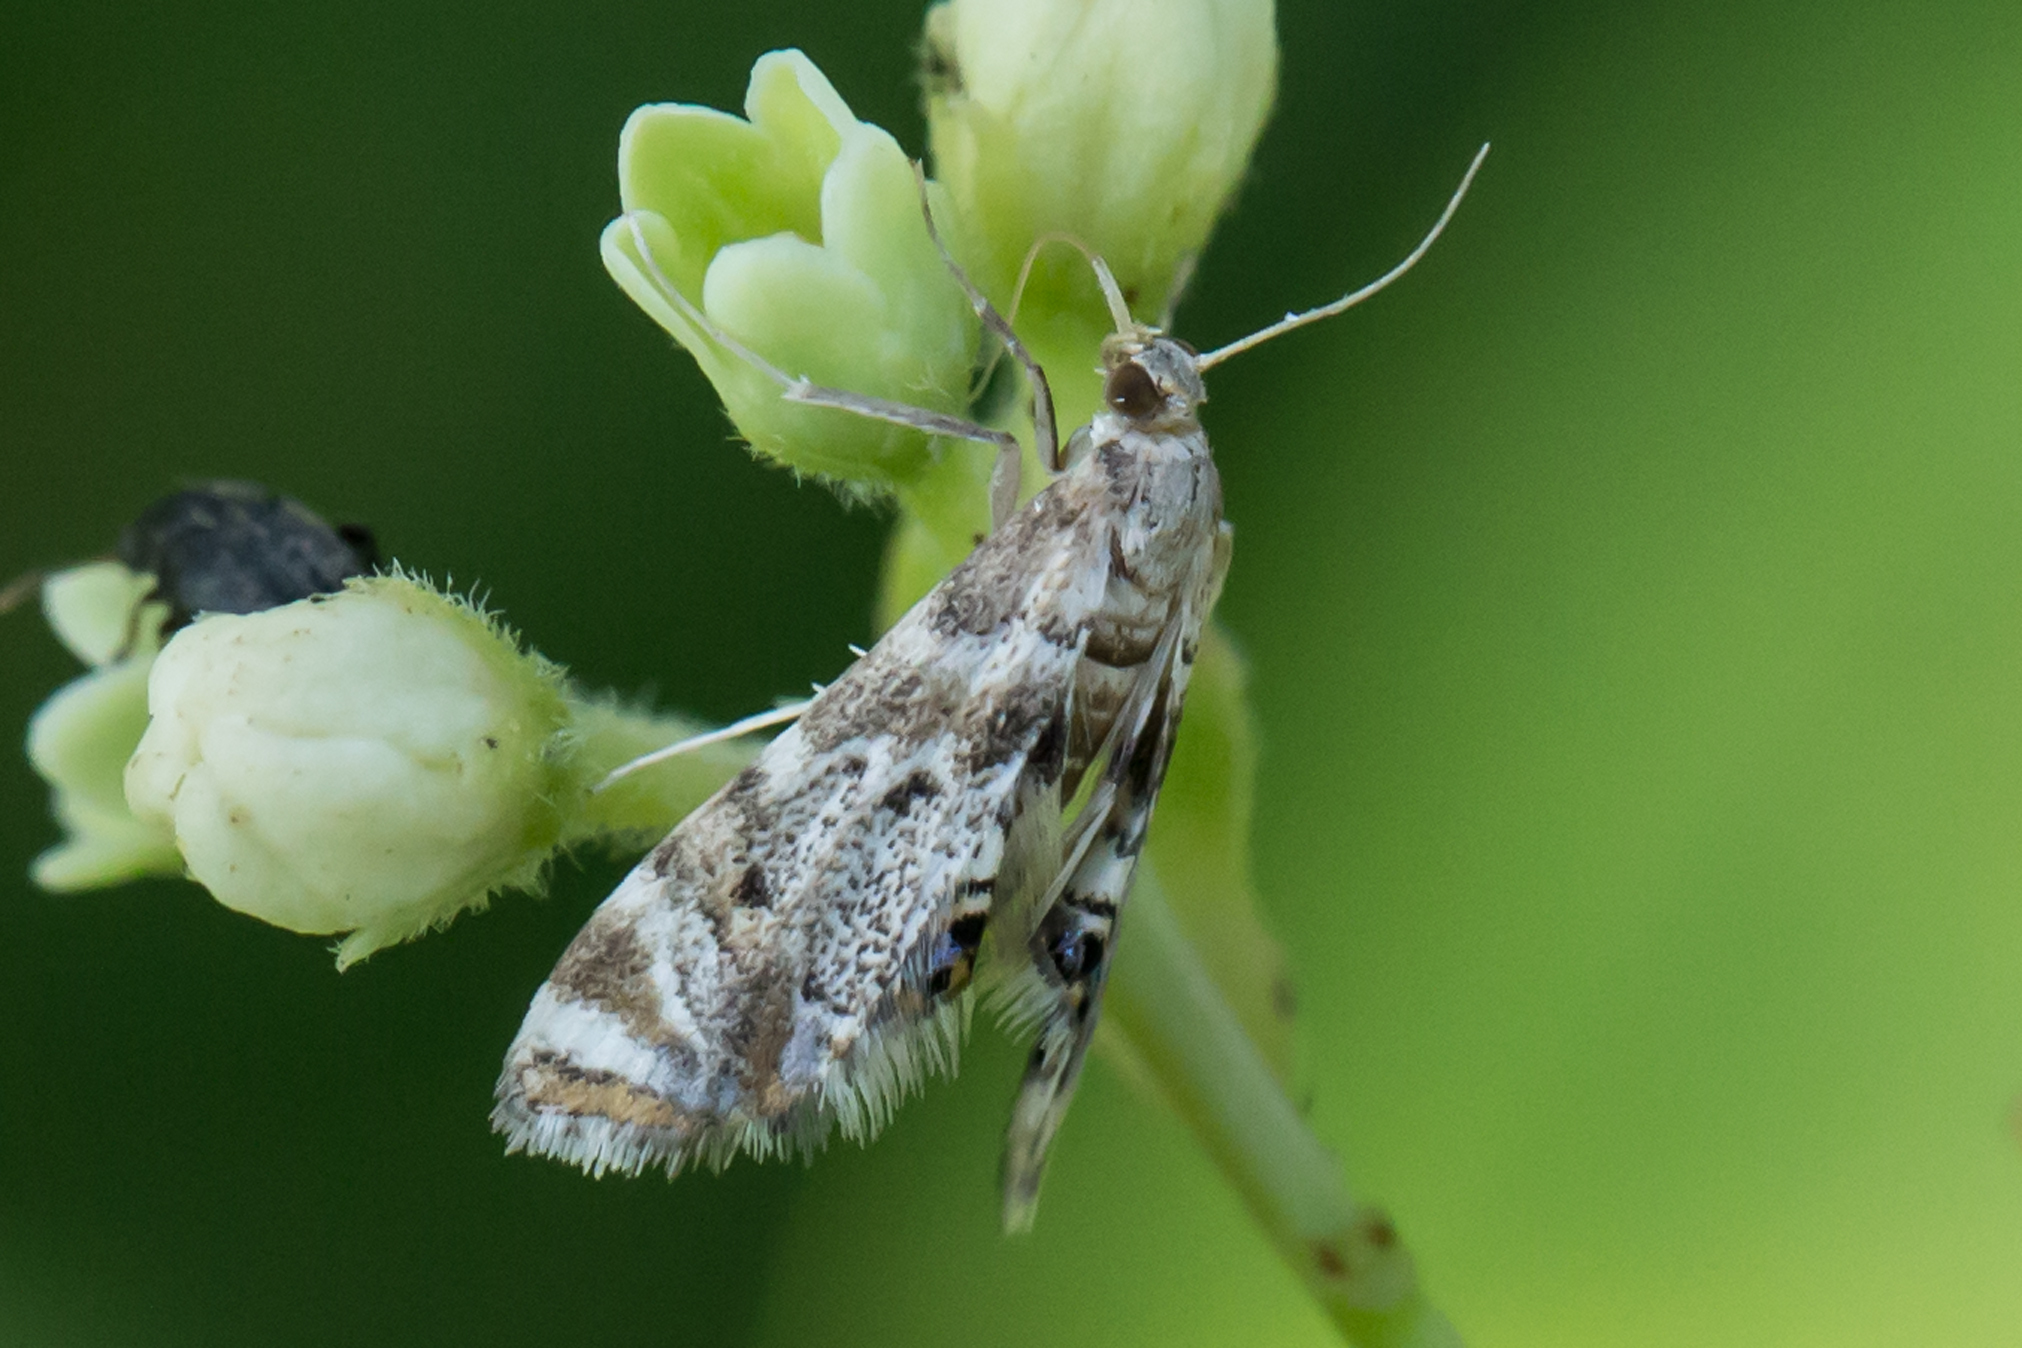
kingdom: Animalia
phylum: Arthropoda
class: Insecta
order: Lepidoptera
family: Crambidae
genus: Petrophila
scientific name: Petrophila fulicalis
